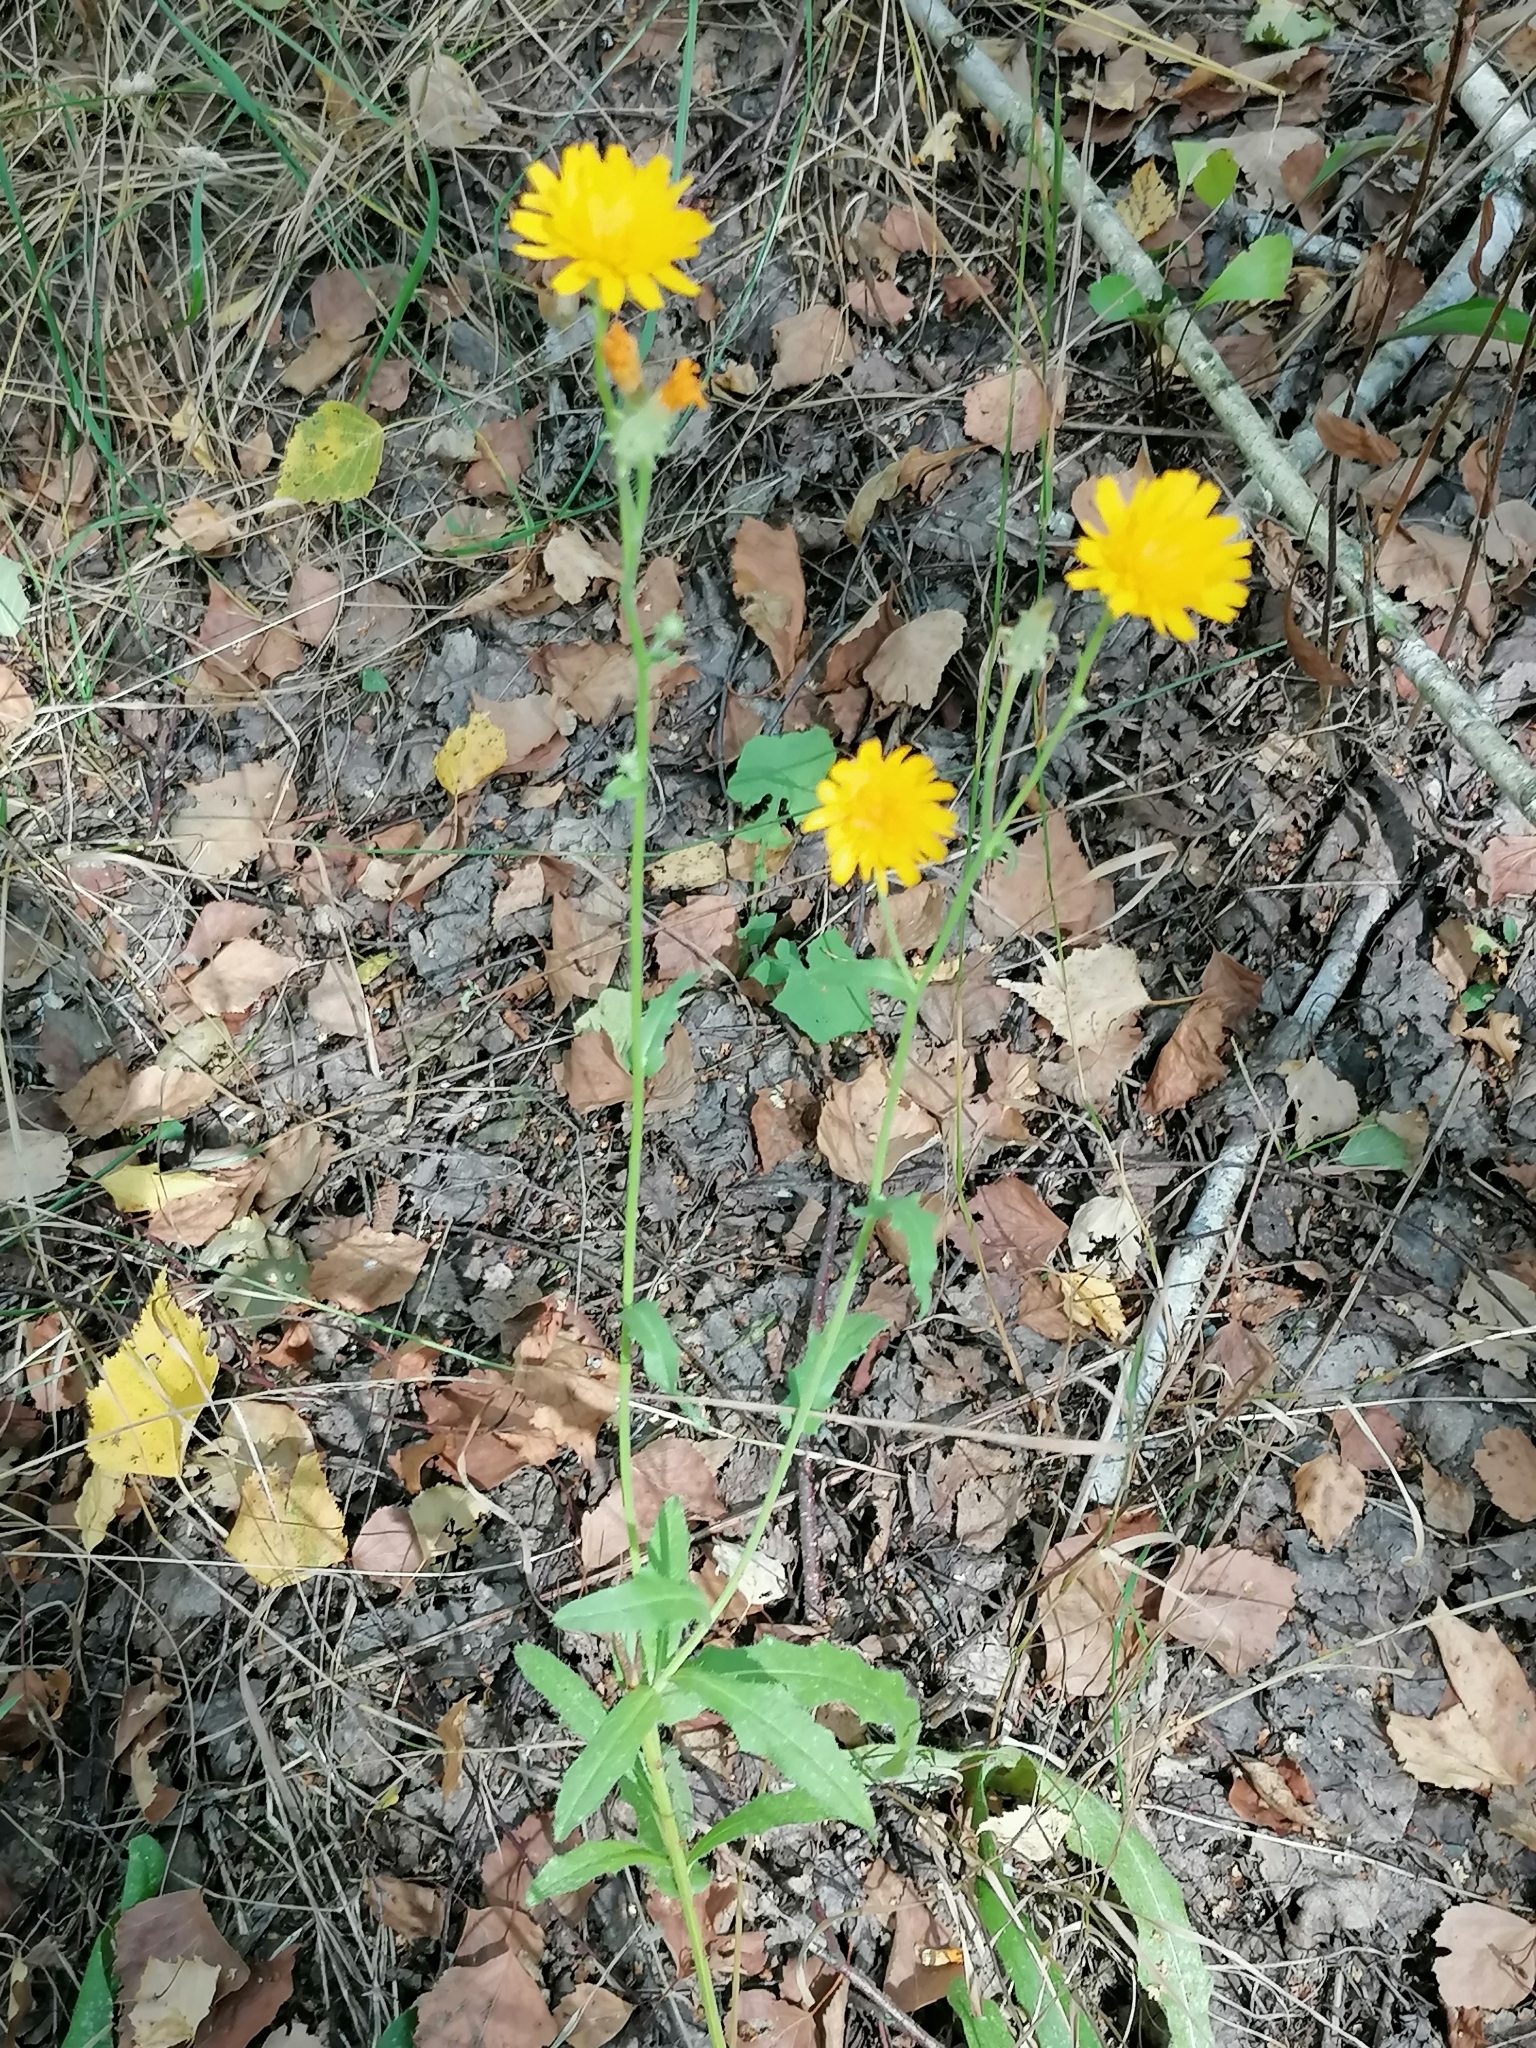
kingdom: Plantae
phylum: Tracheophyta
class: Magnoliopsida
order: Asterales
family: Asteraceae
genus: Picris
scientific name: Picris hieracioides
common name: Hawkweed oxtongue
